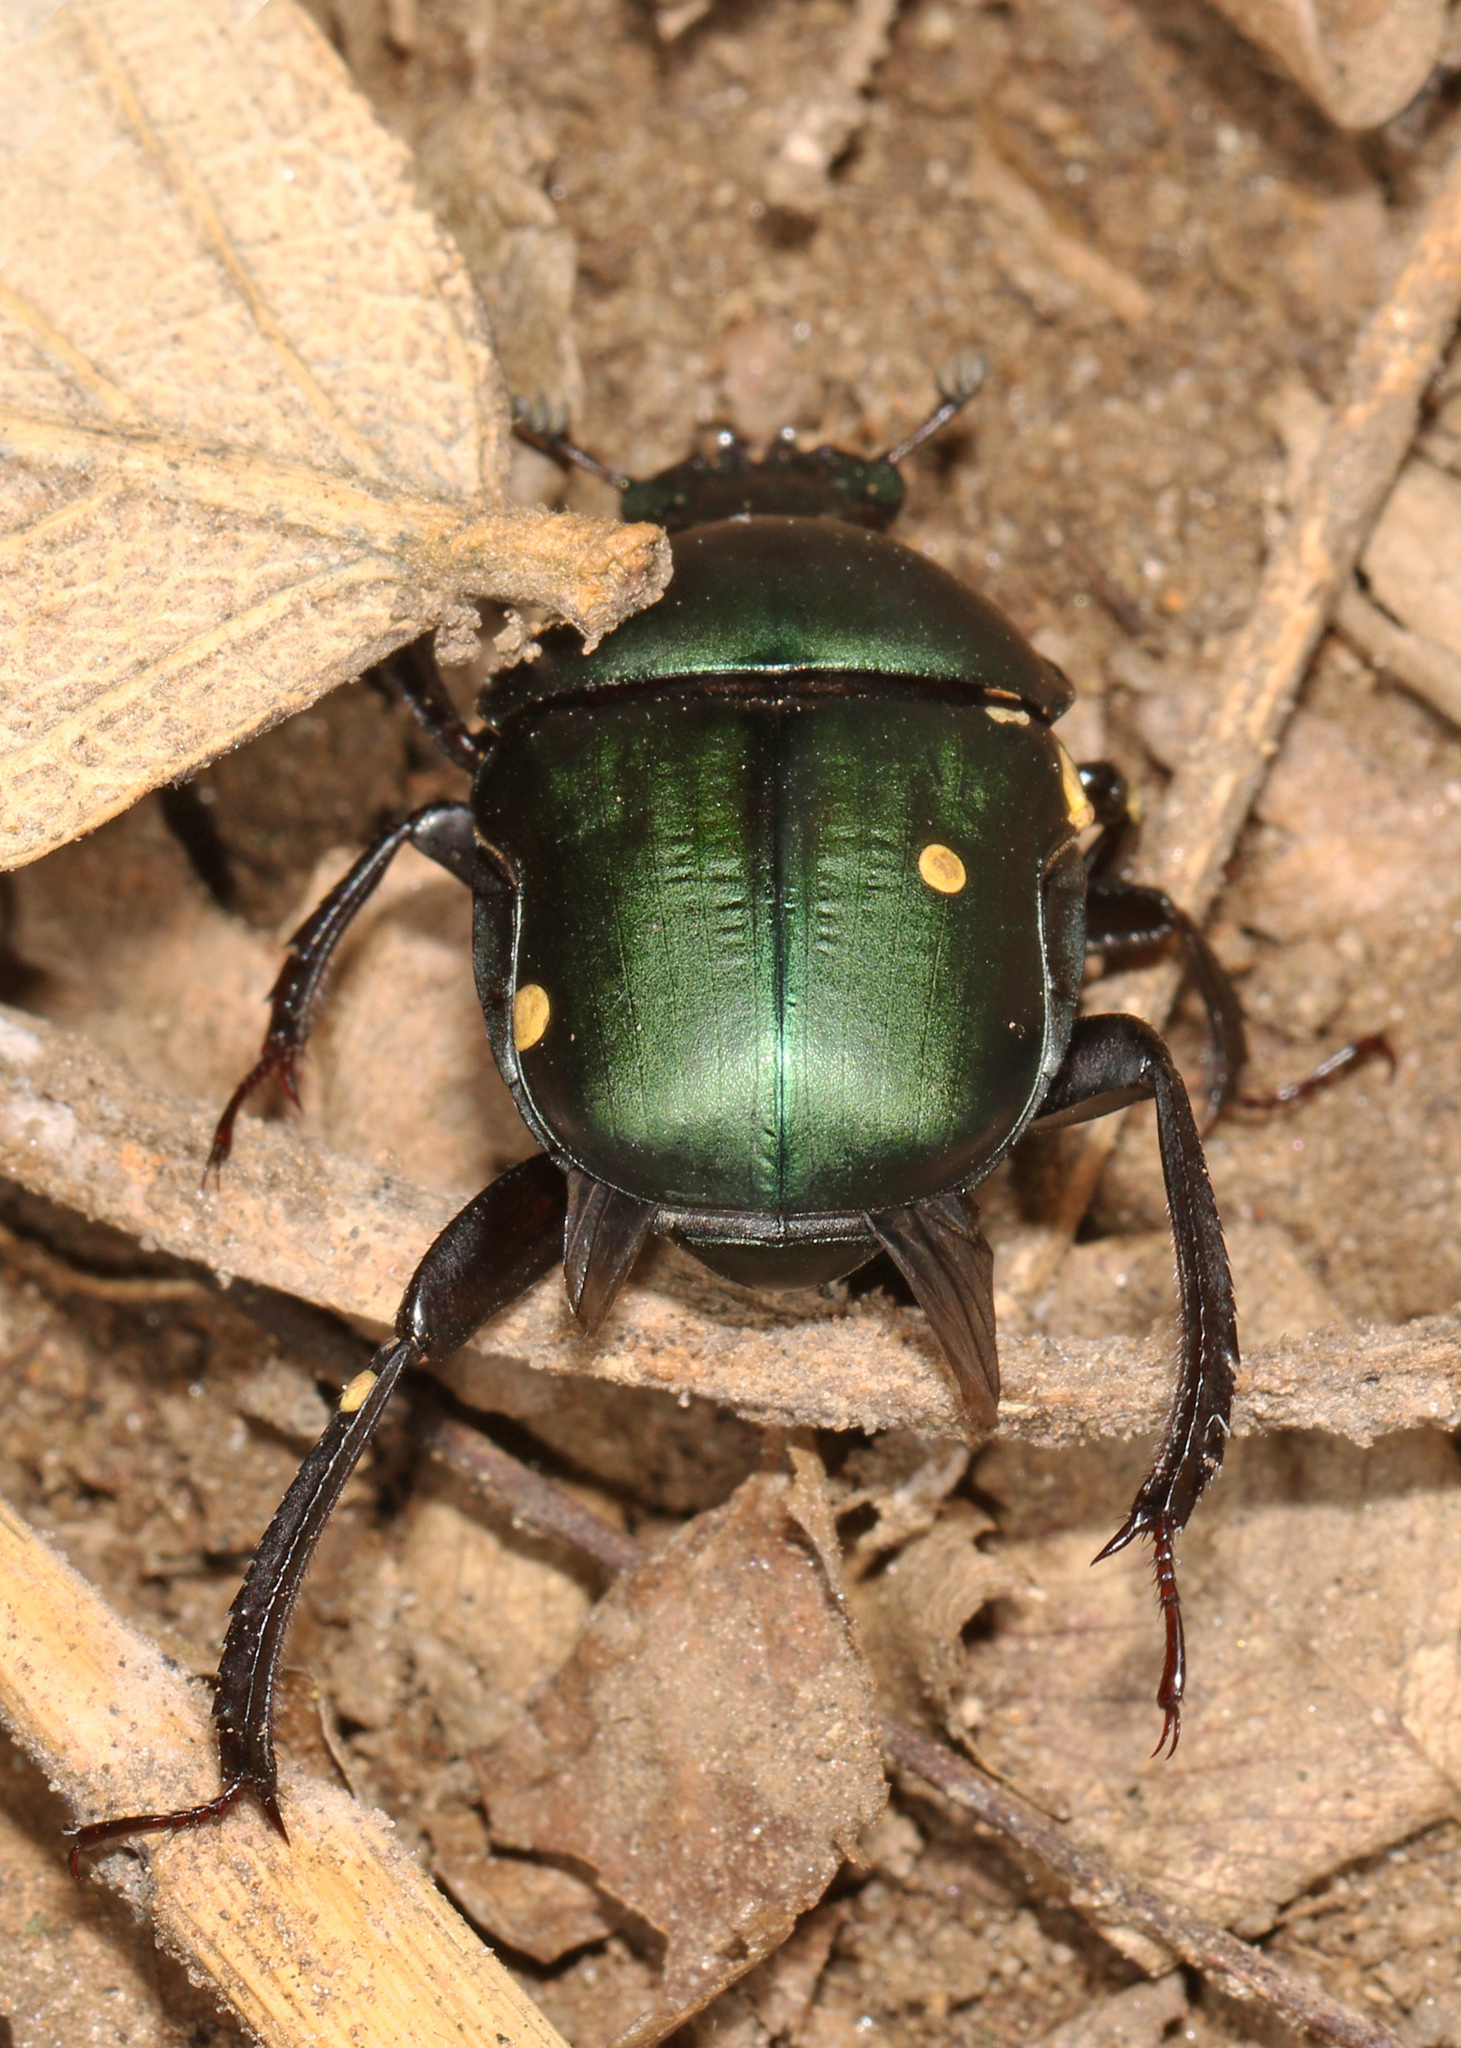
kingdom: Animalia
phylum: Arthropoda
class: Insecta
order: Coleoptera
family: Scarabaeidae
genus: Garreta
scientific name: Garreta wahlbergi
